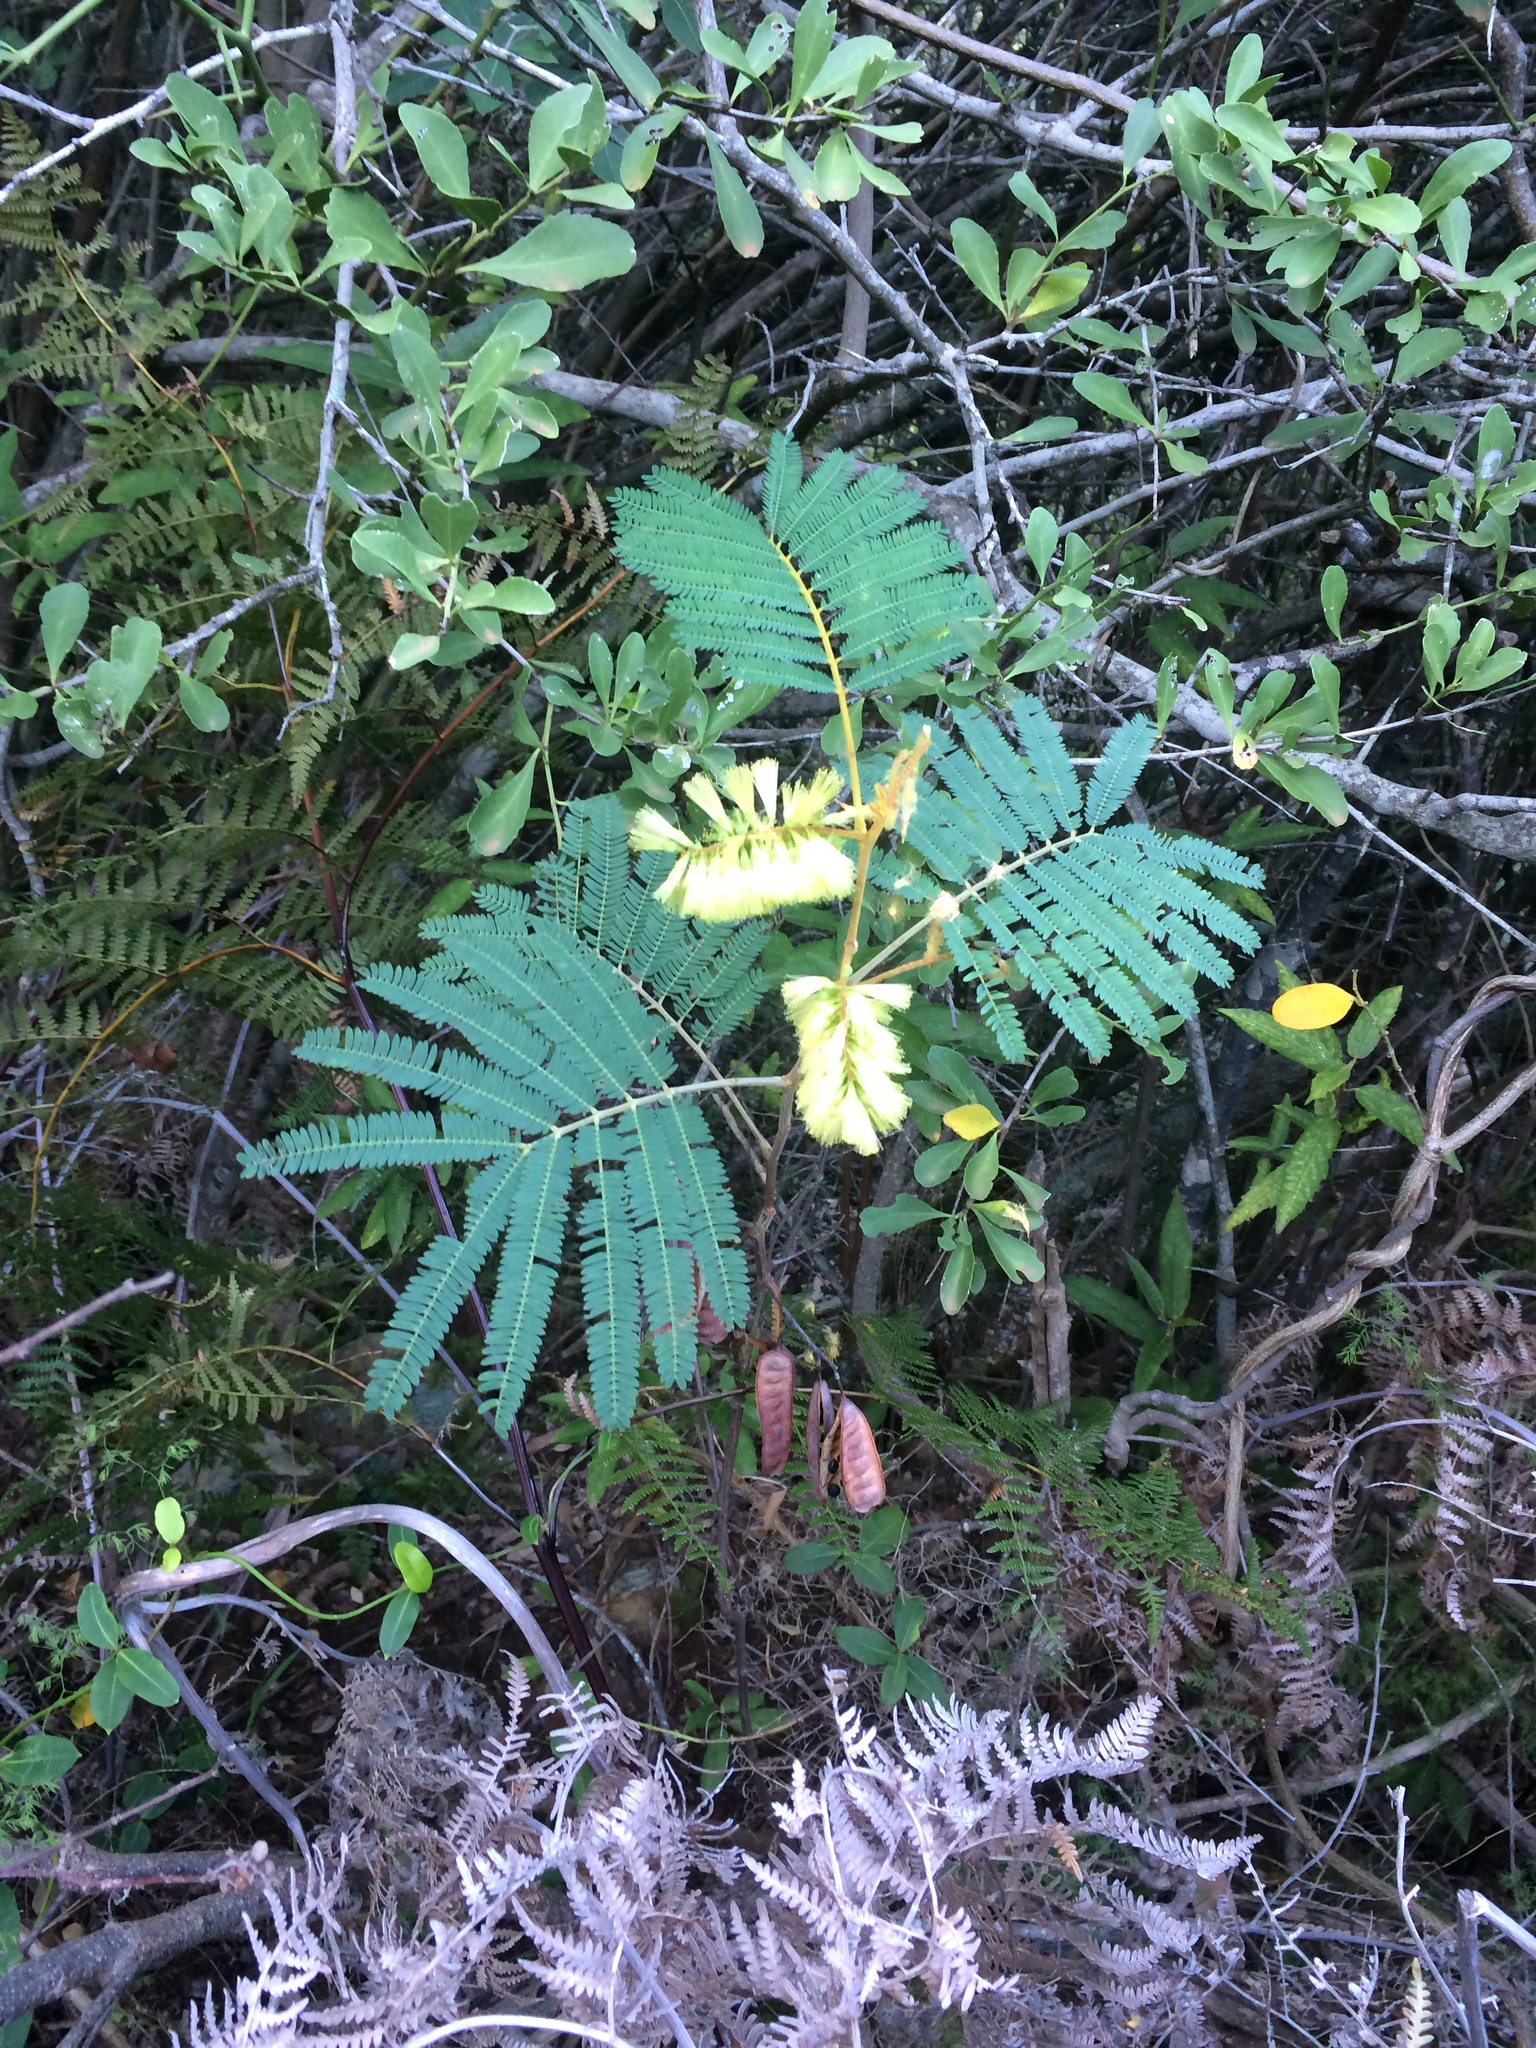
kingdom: Plantae
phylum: Tracheophyta
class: Magnoliopsida
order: Fabales
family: Fabaceae
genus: Paraserianthes
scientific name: Paraserianthes lophantha
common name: Plume albizia
